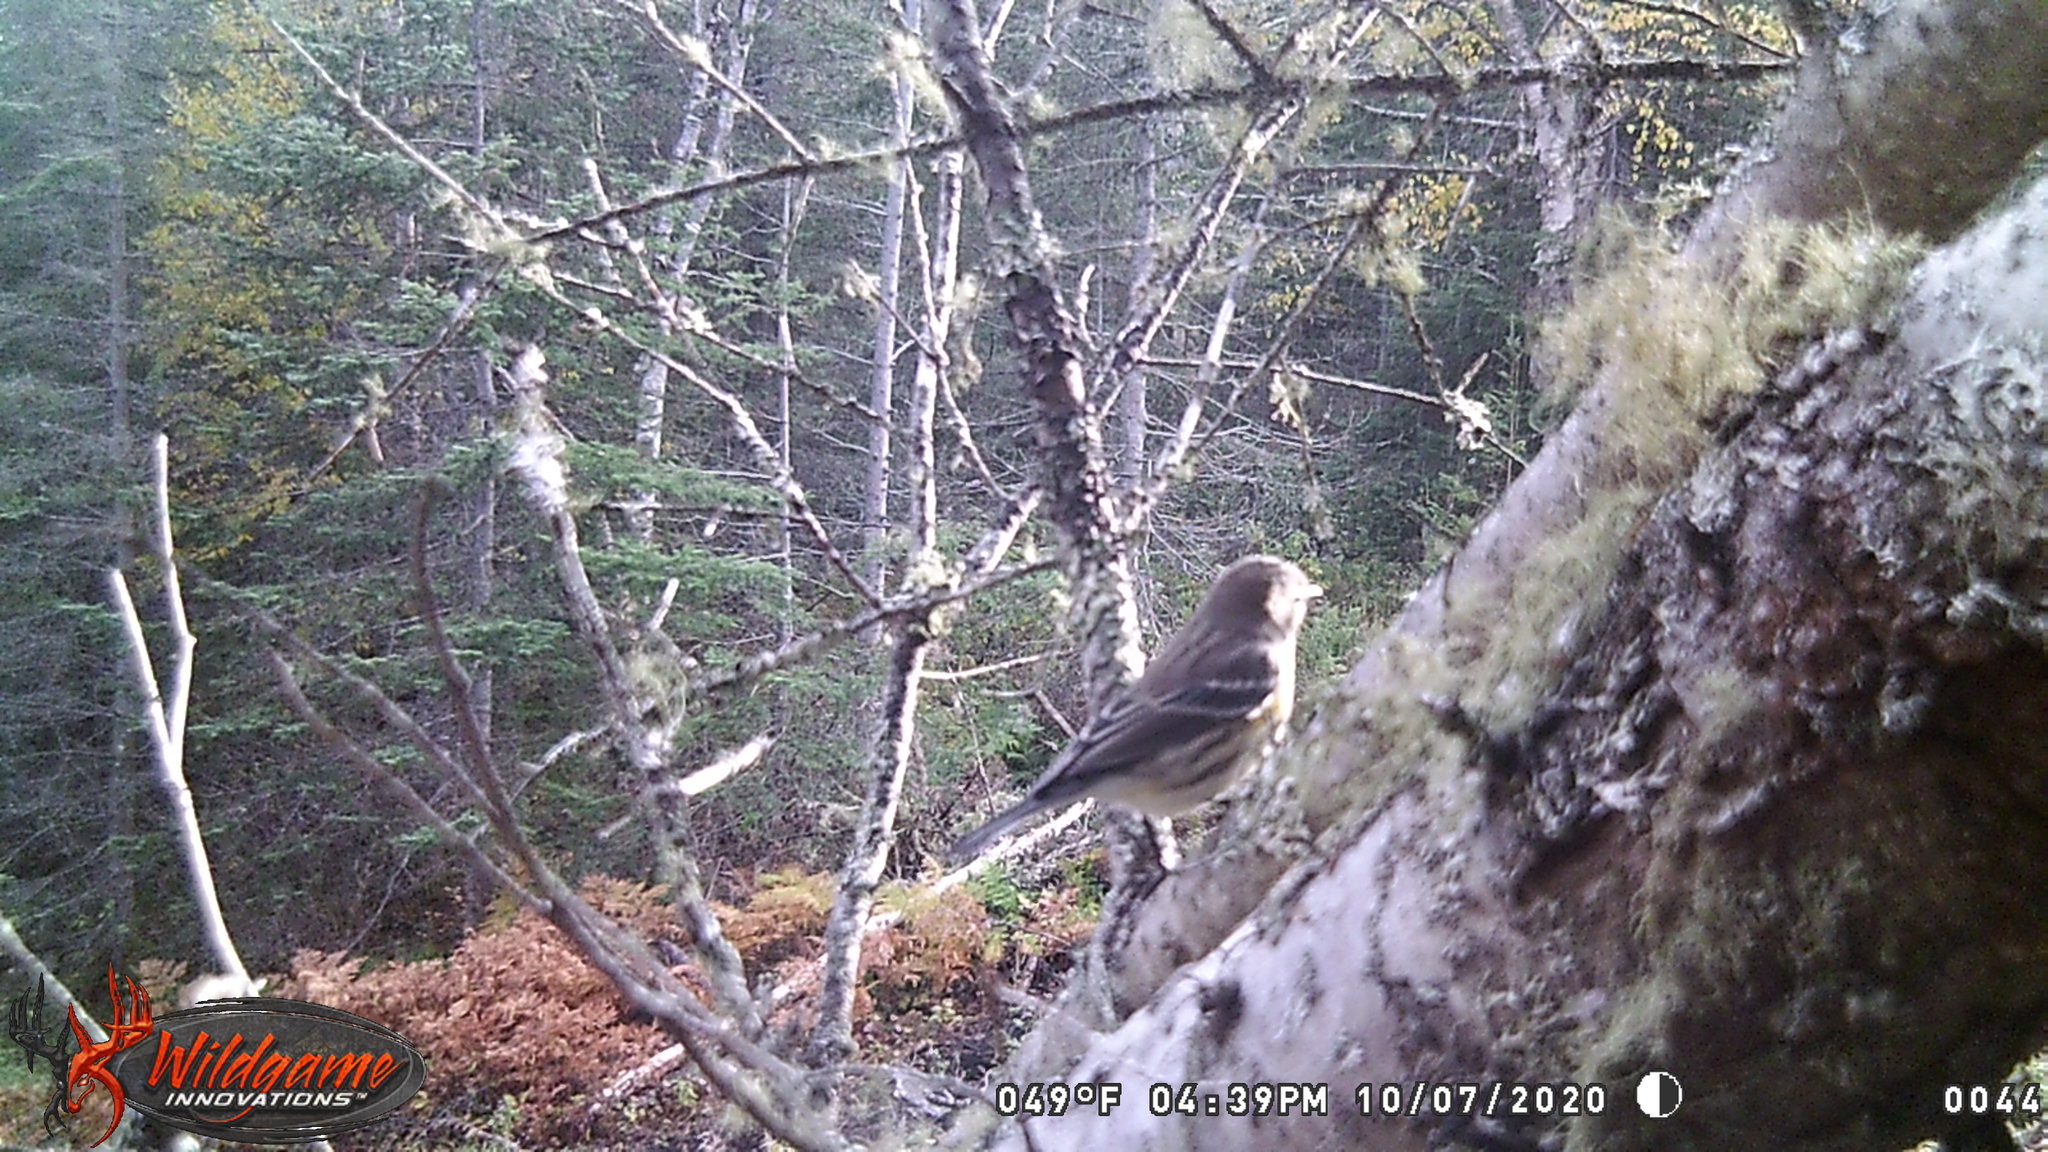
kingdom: Animalia
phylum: Chordata
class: Aves
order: Passeriformes
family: Parulidae
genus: Setophaga
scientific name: Setophaga coronata
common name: Myrtle warbler
